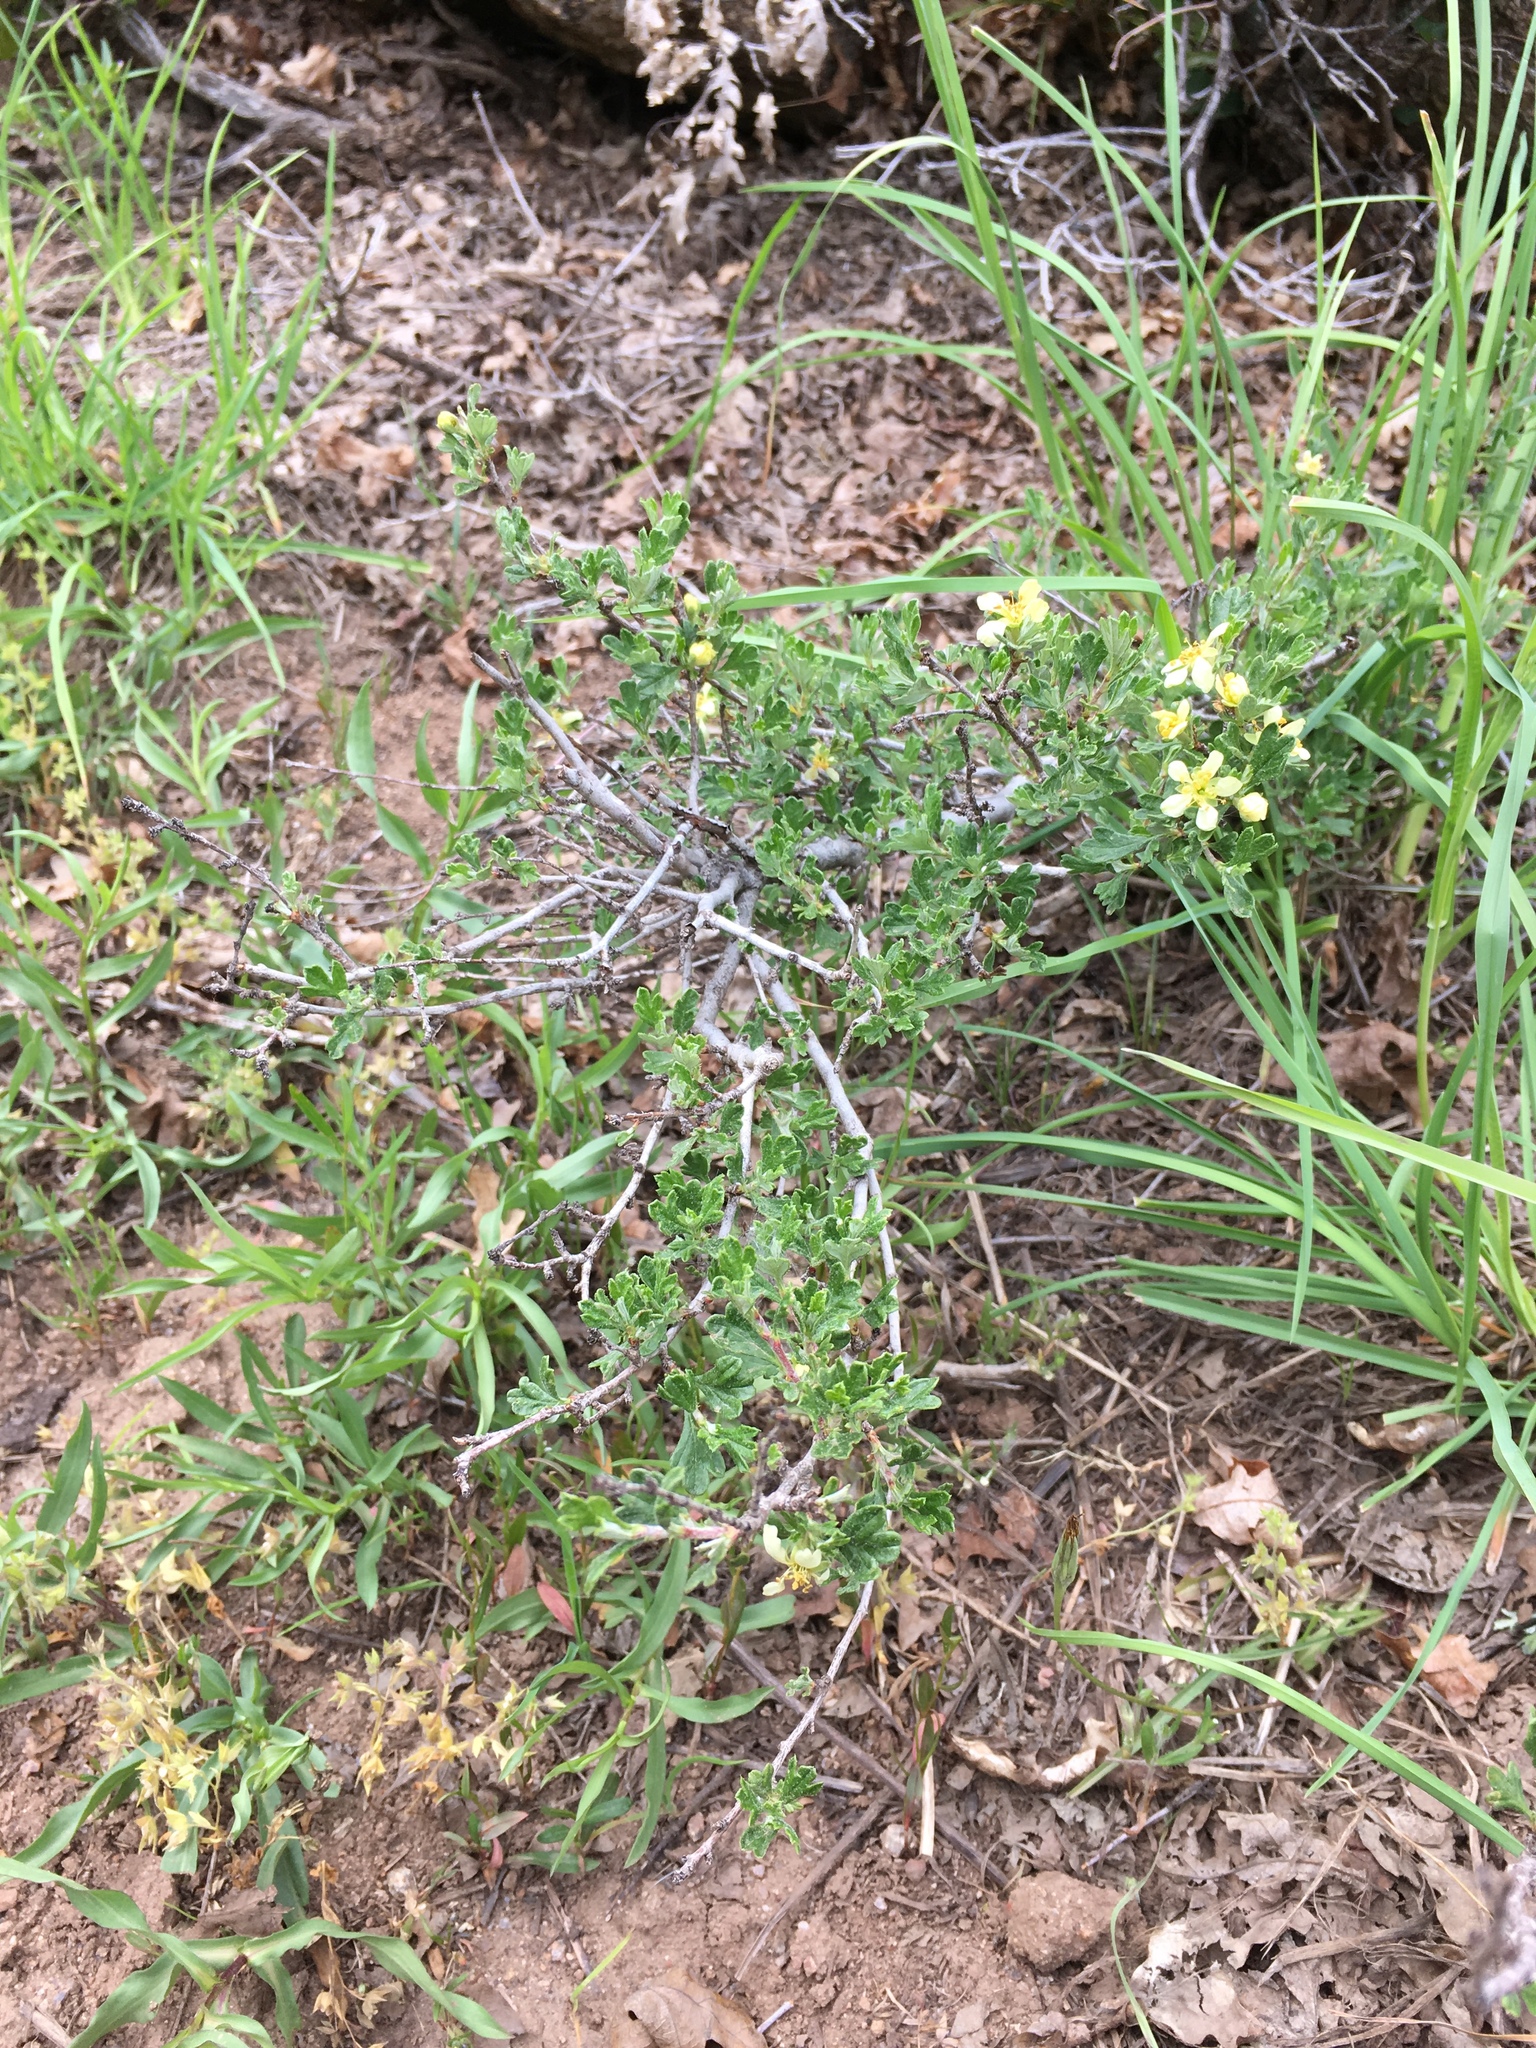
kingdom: Plantae
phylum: Tracheophyta
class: Magnoliopsida
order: Rosales
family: Rosaceae
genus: Purshia
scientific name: Purshia tridentata
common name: Antelope bitterbrush
